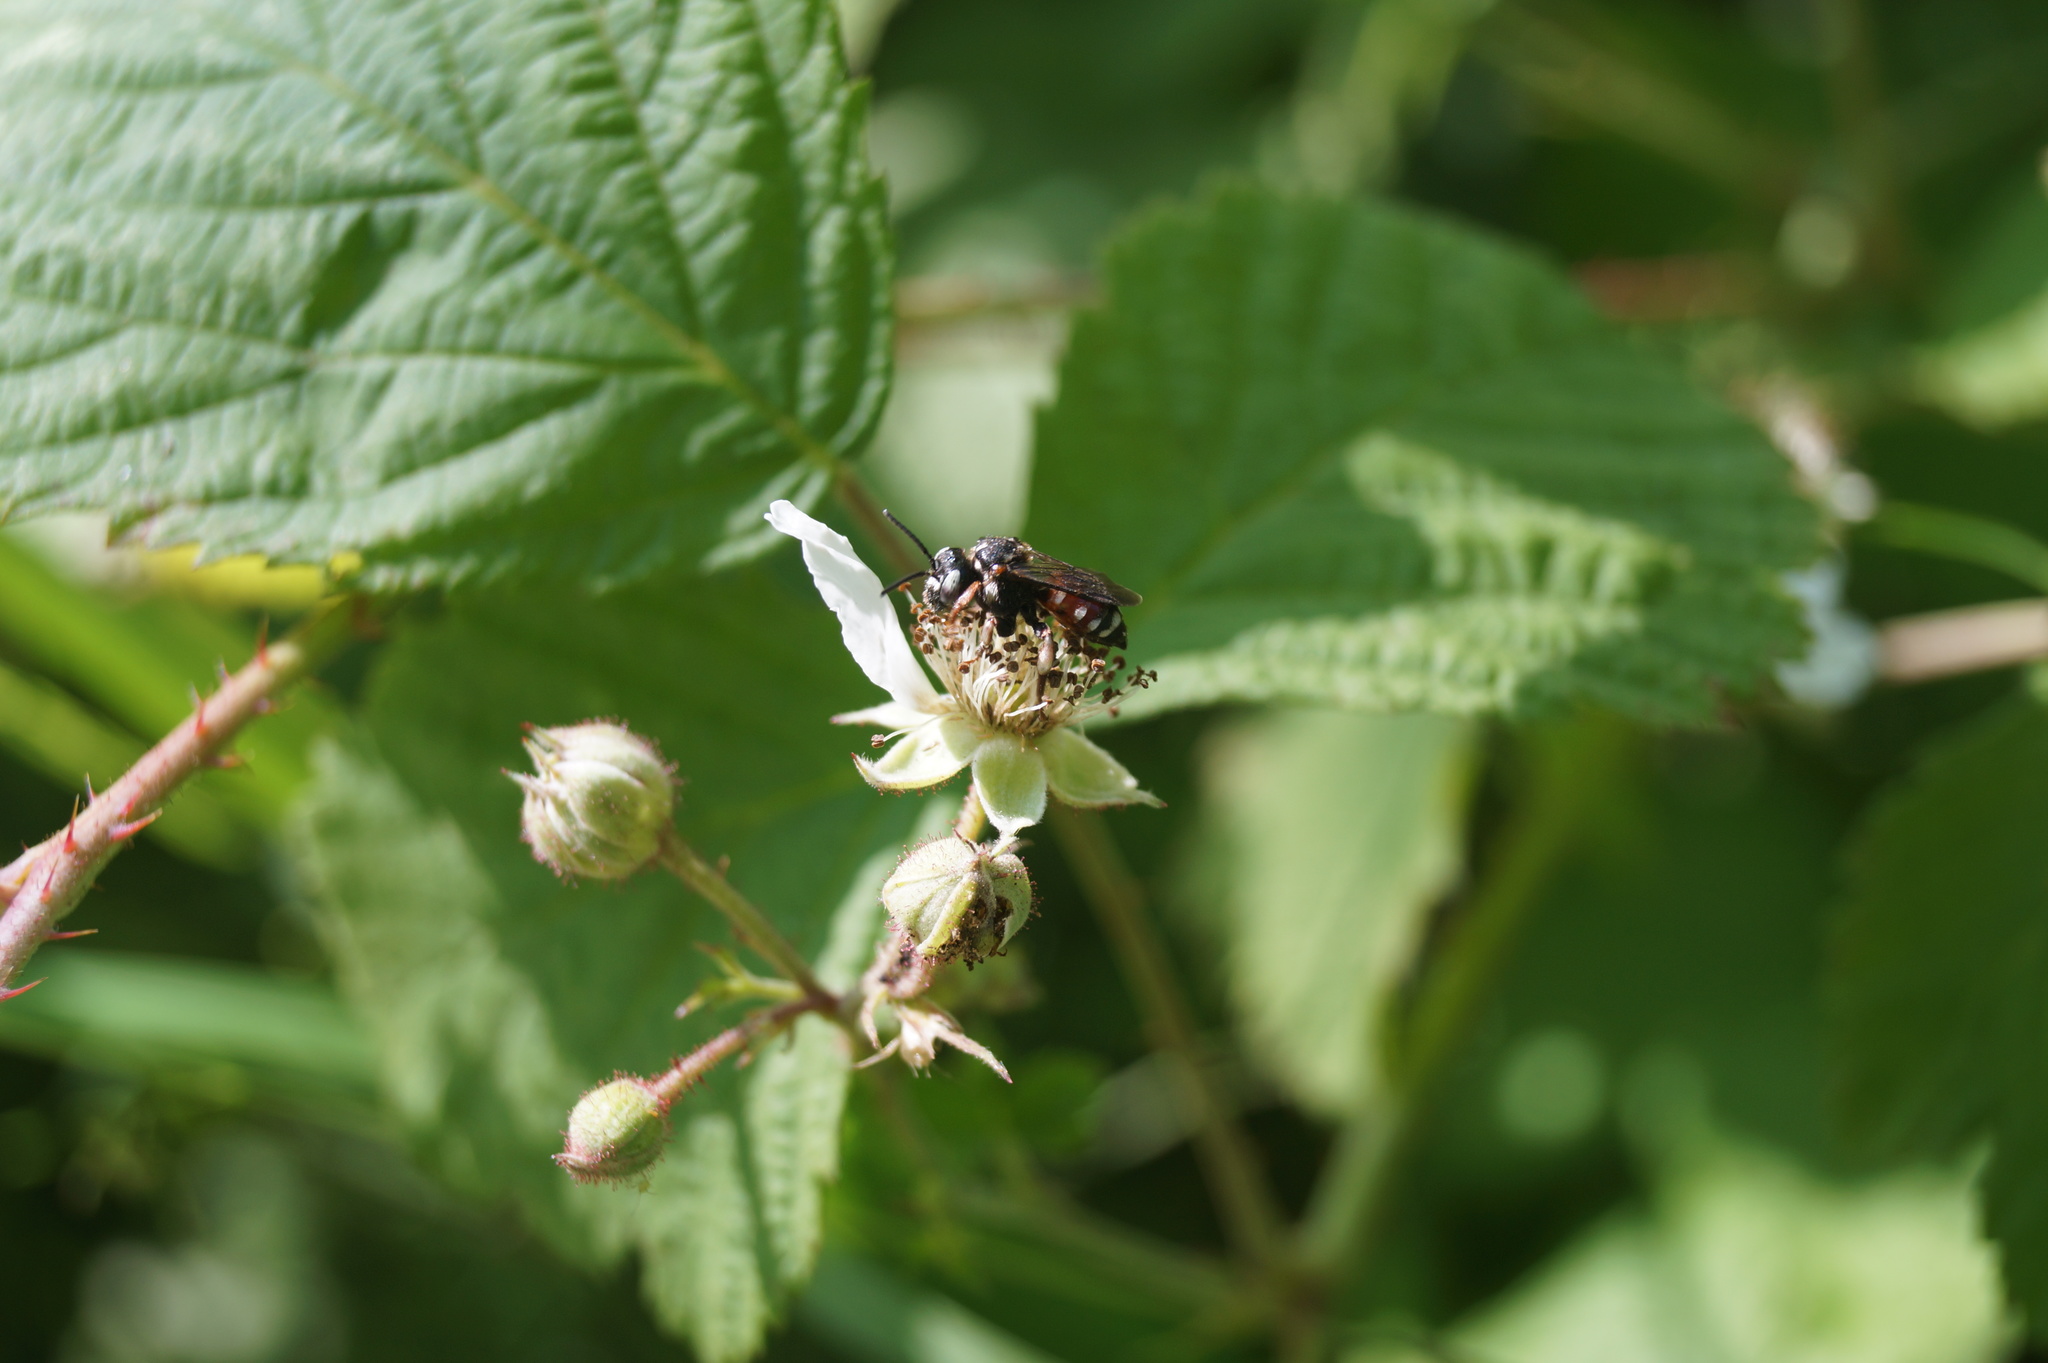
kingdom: Animalia
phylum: Arthropoda
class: Insecta
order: Hymenoptera
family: Apidae
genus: Epeoloides
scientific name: Epeoloides coecutiens
